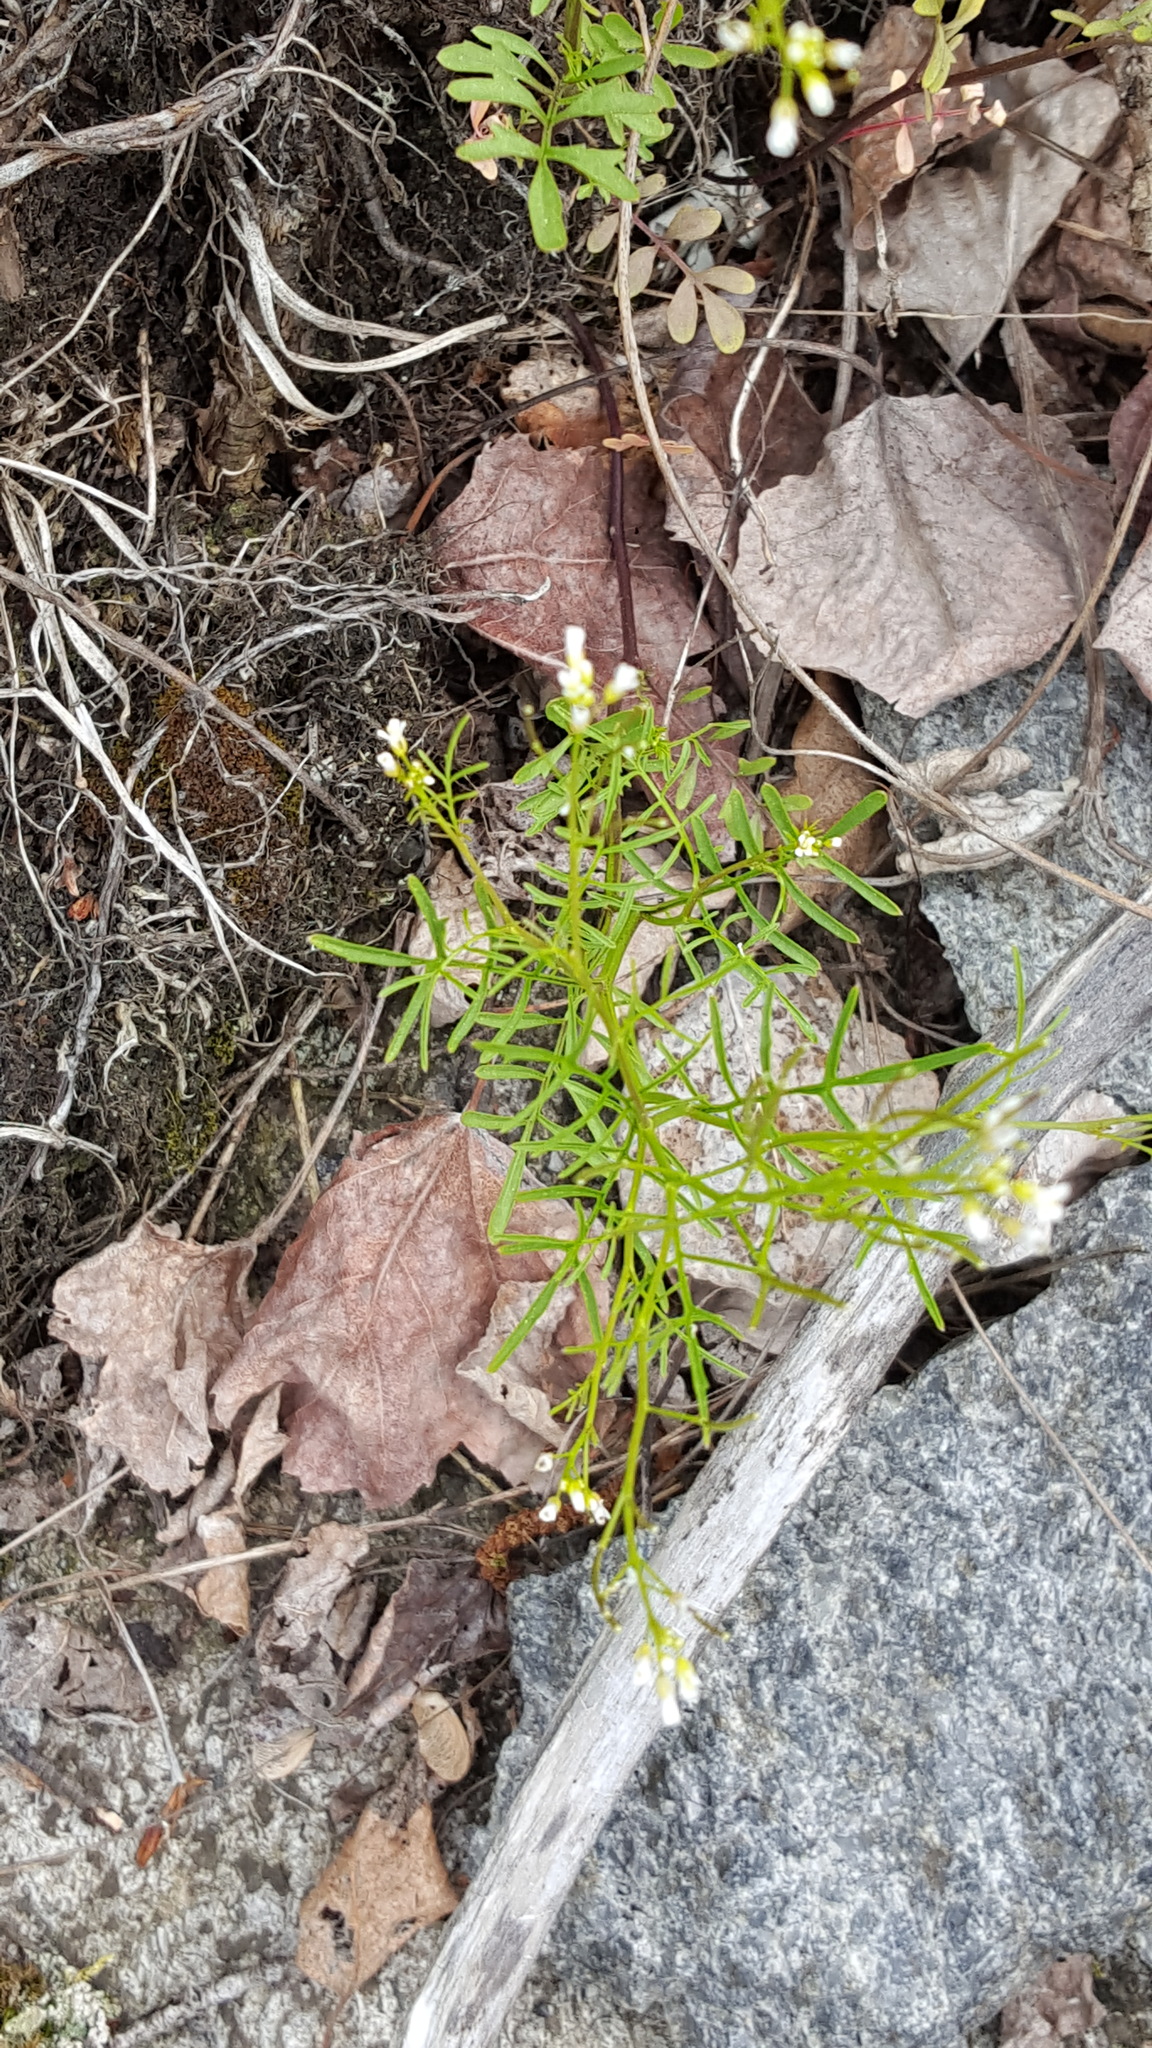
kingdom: Plantae
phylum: Tracheophyta
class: Magnoliopsida
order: Brassicales
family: Brassicaceae
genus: Cardamine
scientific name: Cardamine parviflora
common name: Sand bittercress
